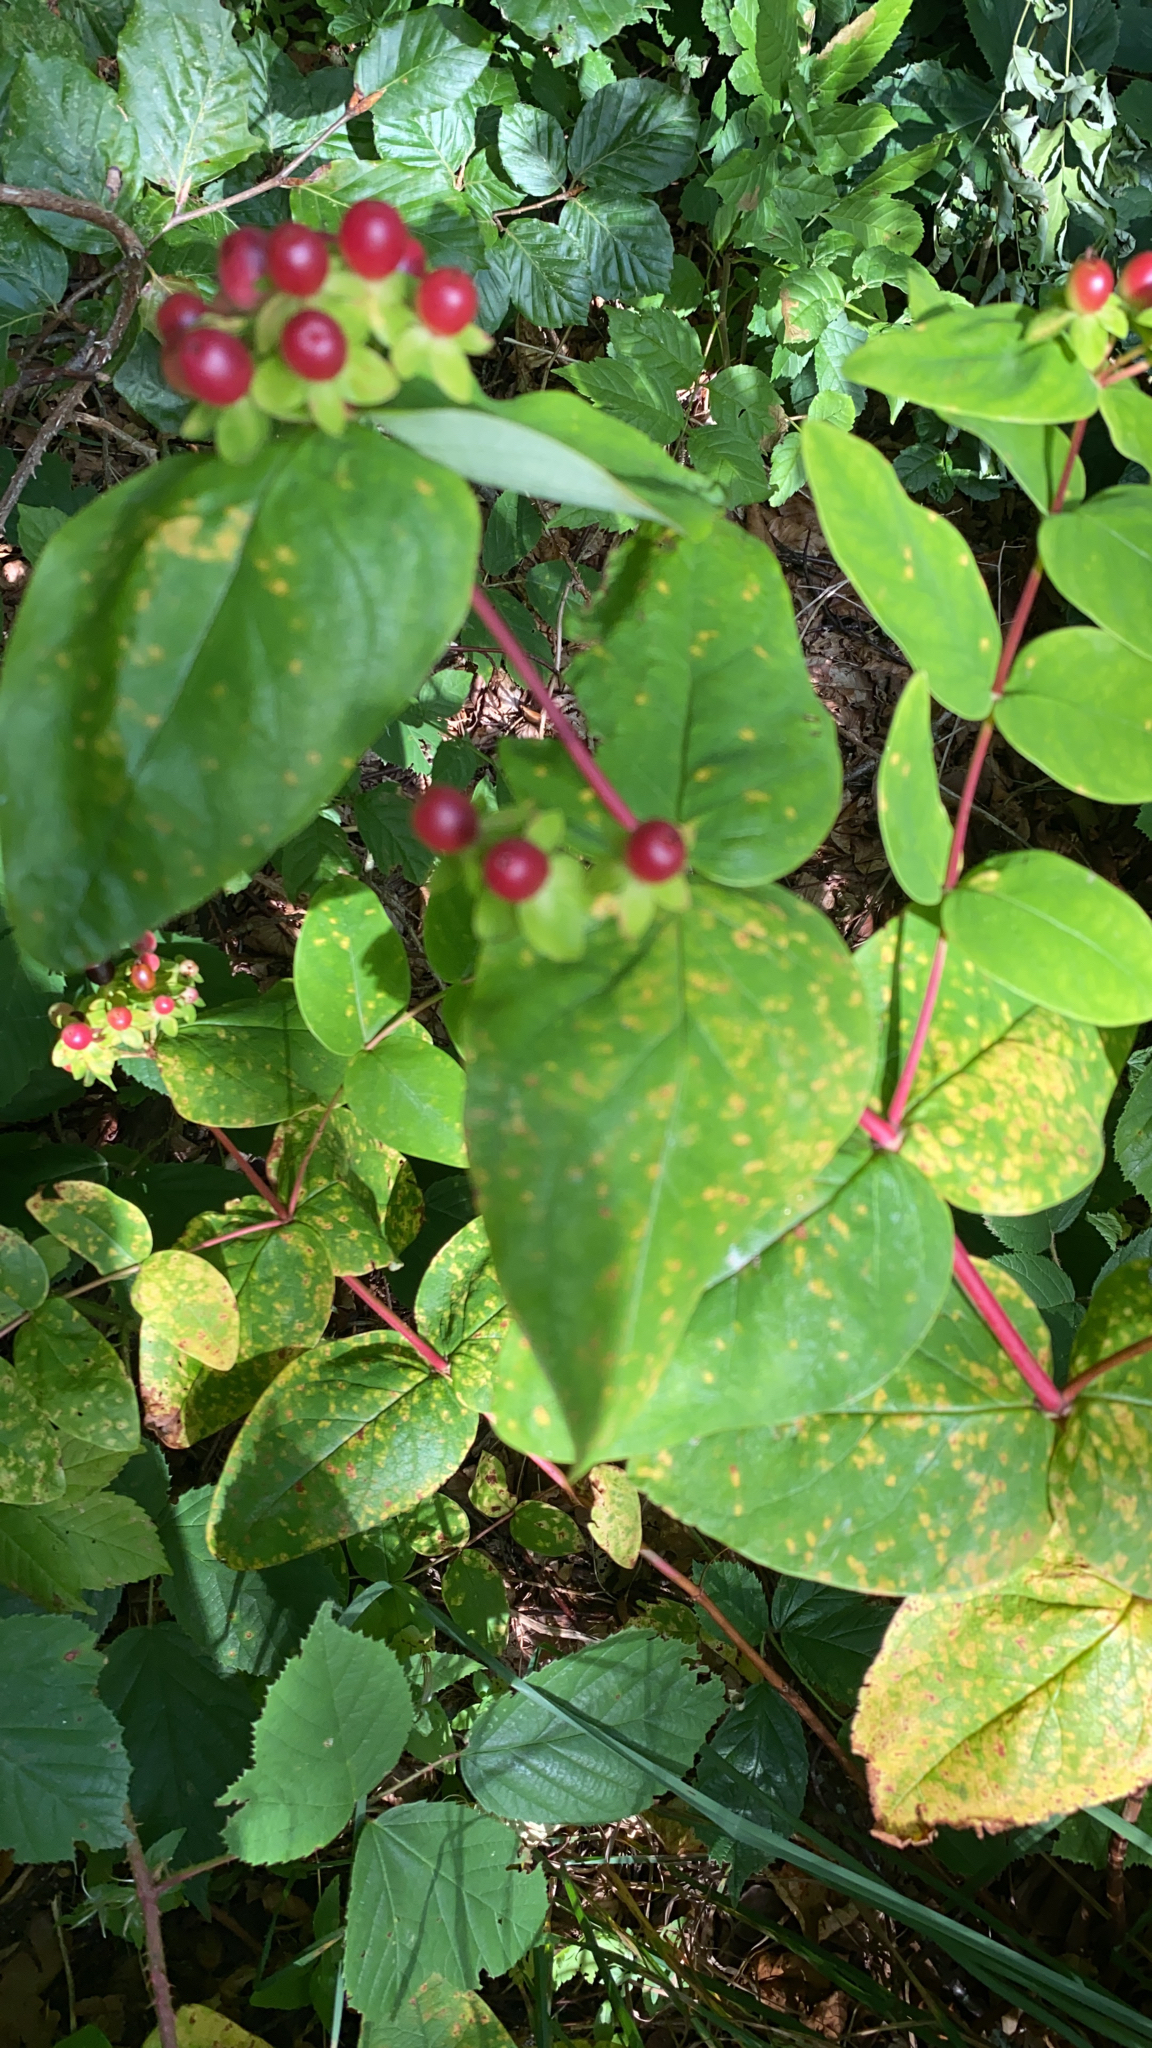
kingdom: Plantae
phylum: Tracheophyta
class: Magnoliopsida
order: Malpighiales
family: Hypericaceae
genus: Hypericum
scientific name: Hypericum androsaemum
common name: Sweet-amber
